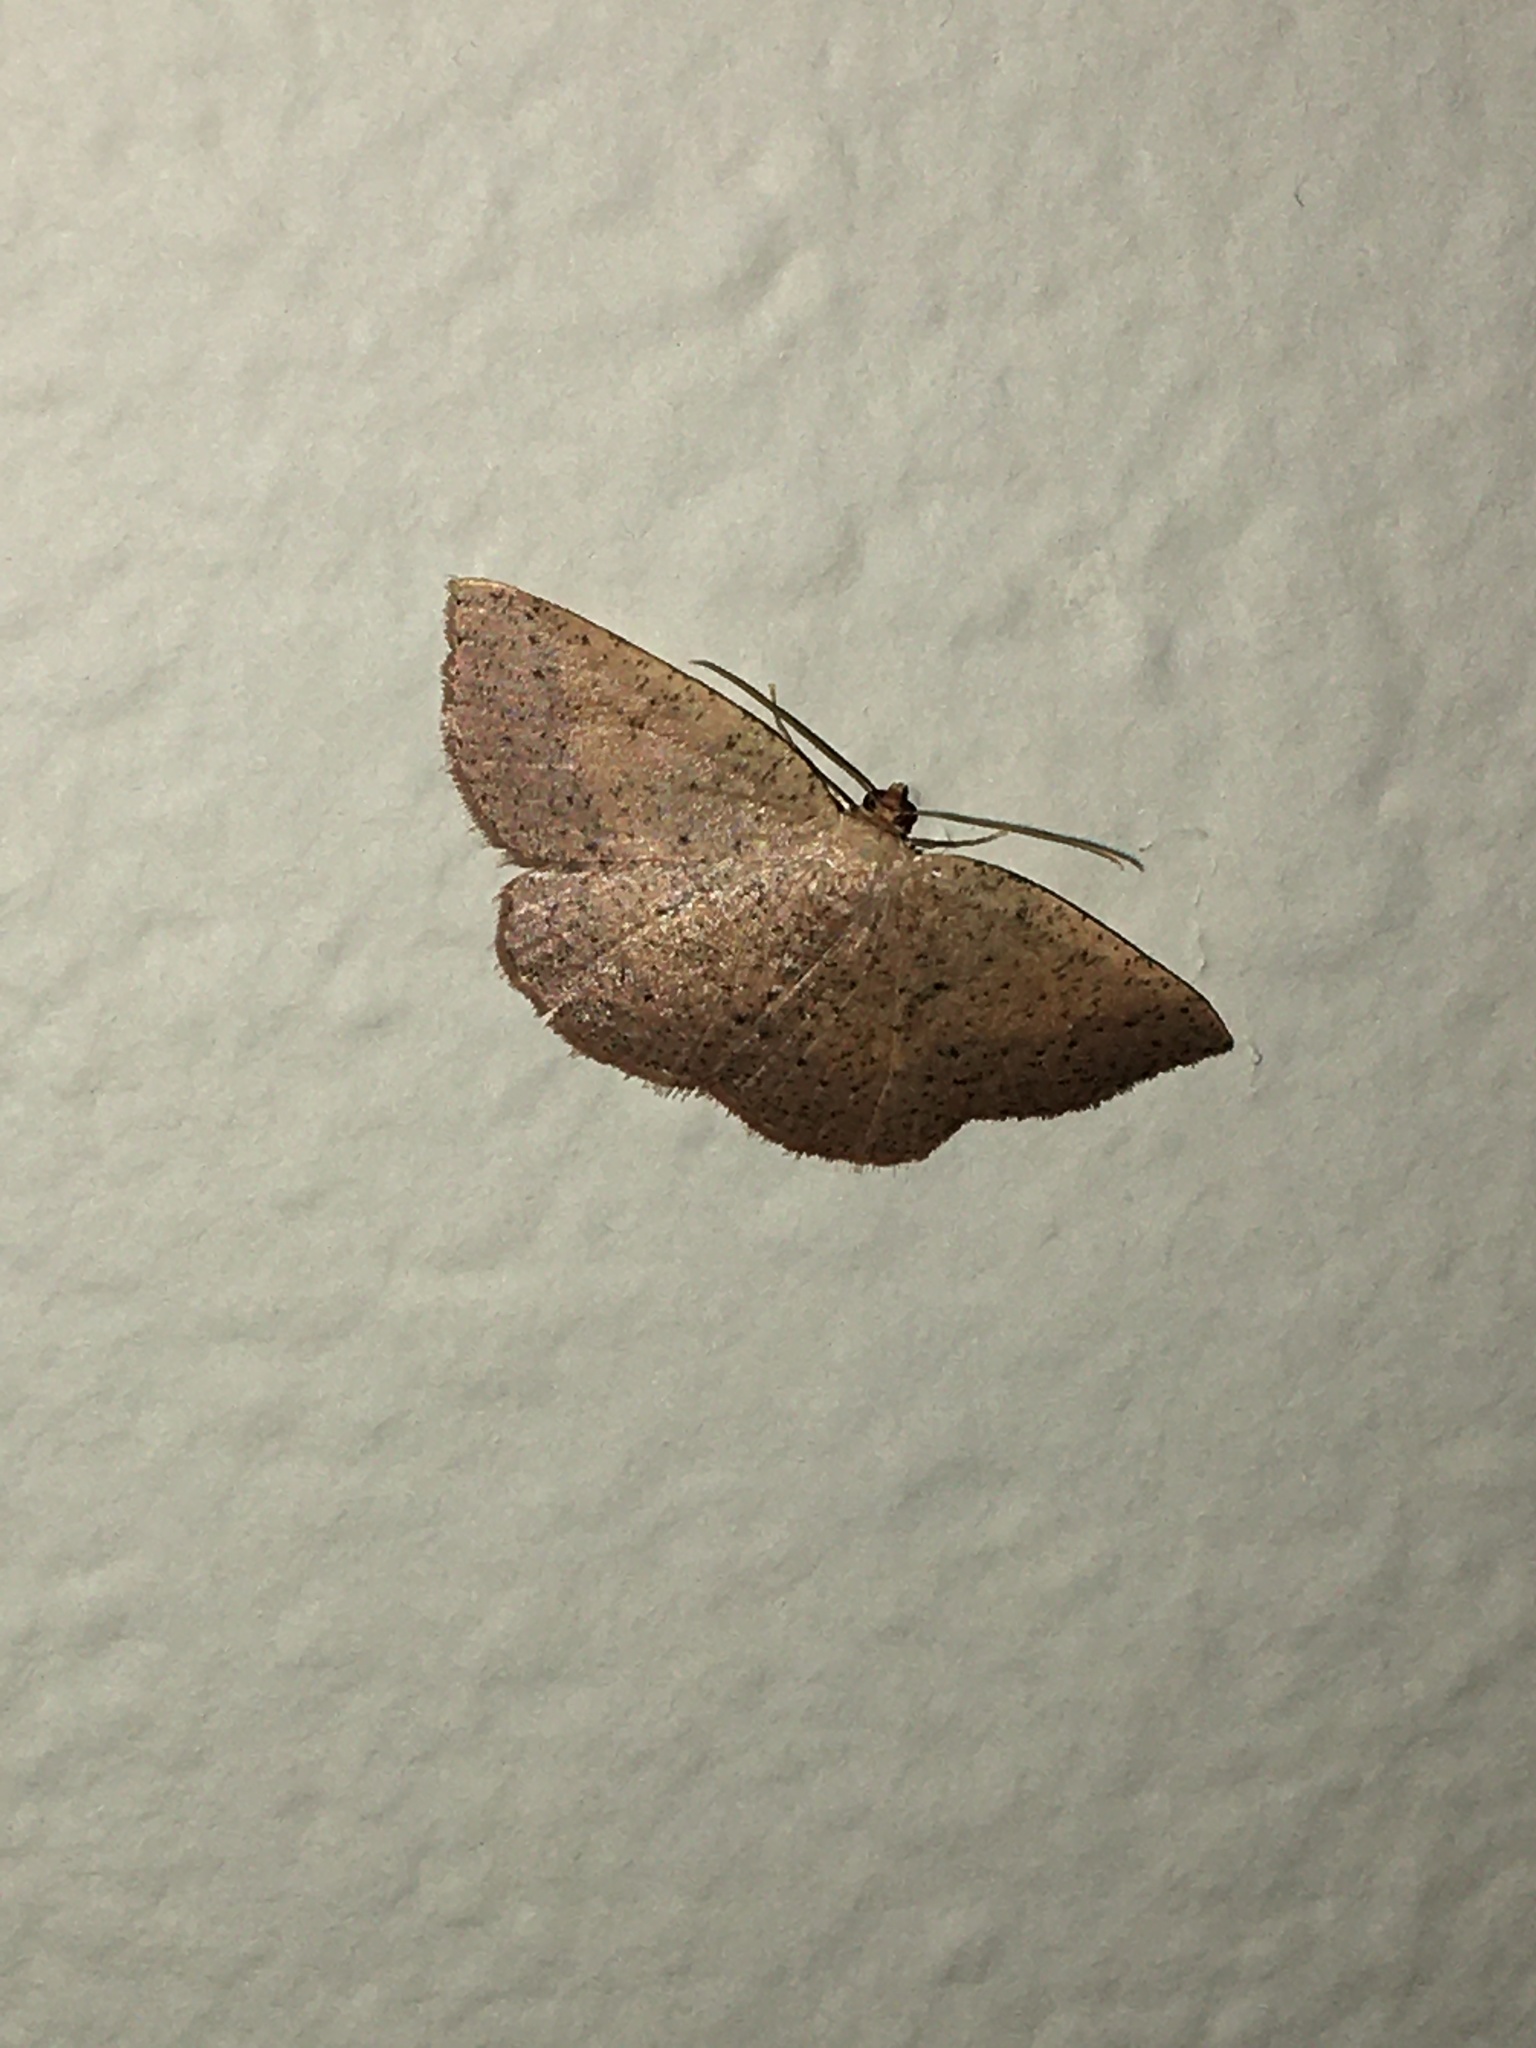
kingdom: Animalia
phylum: Arthropoda
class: Insecta
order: Lepidoptera
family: Geometridae
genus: Episemasia
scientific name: Episemasia solitaria
